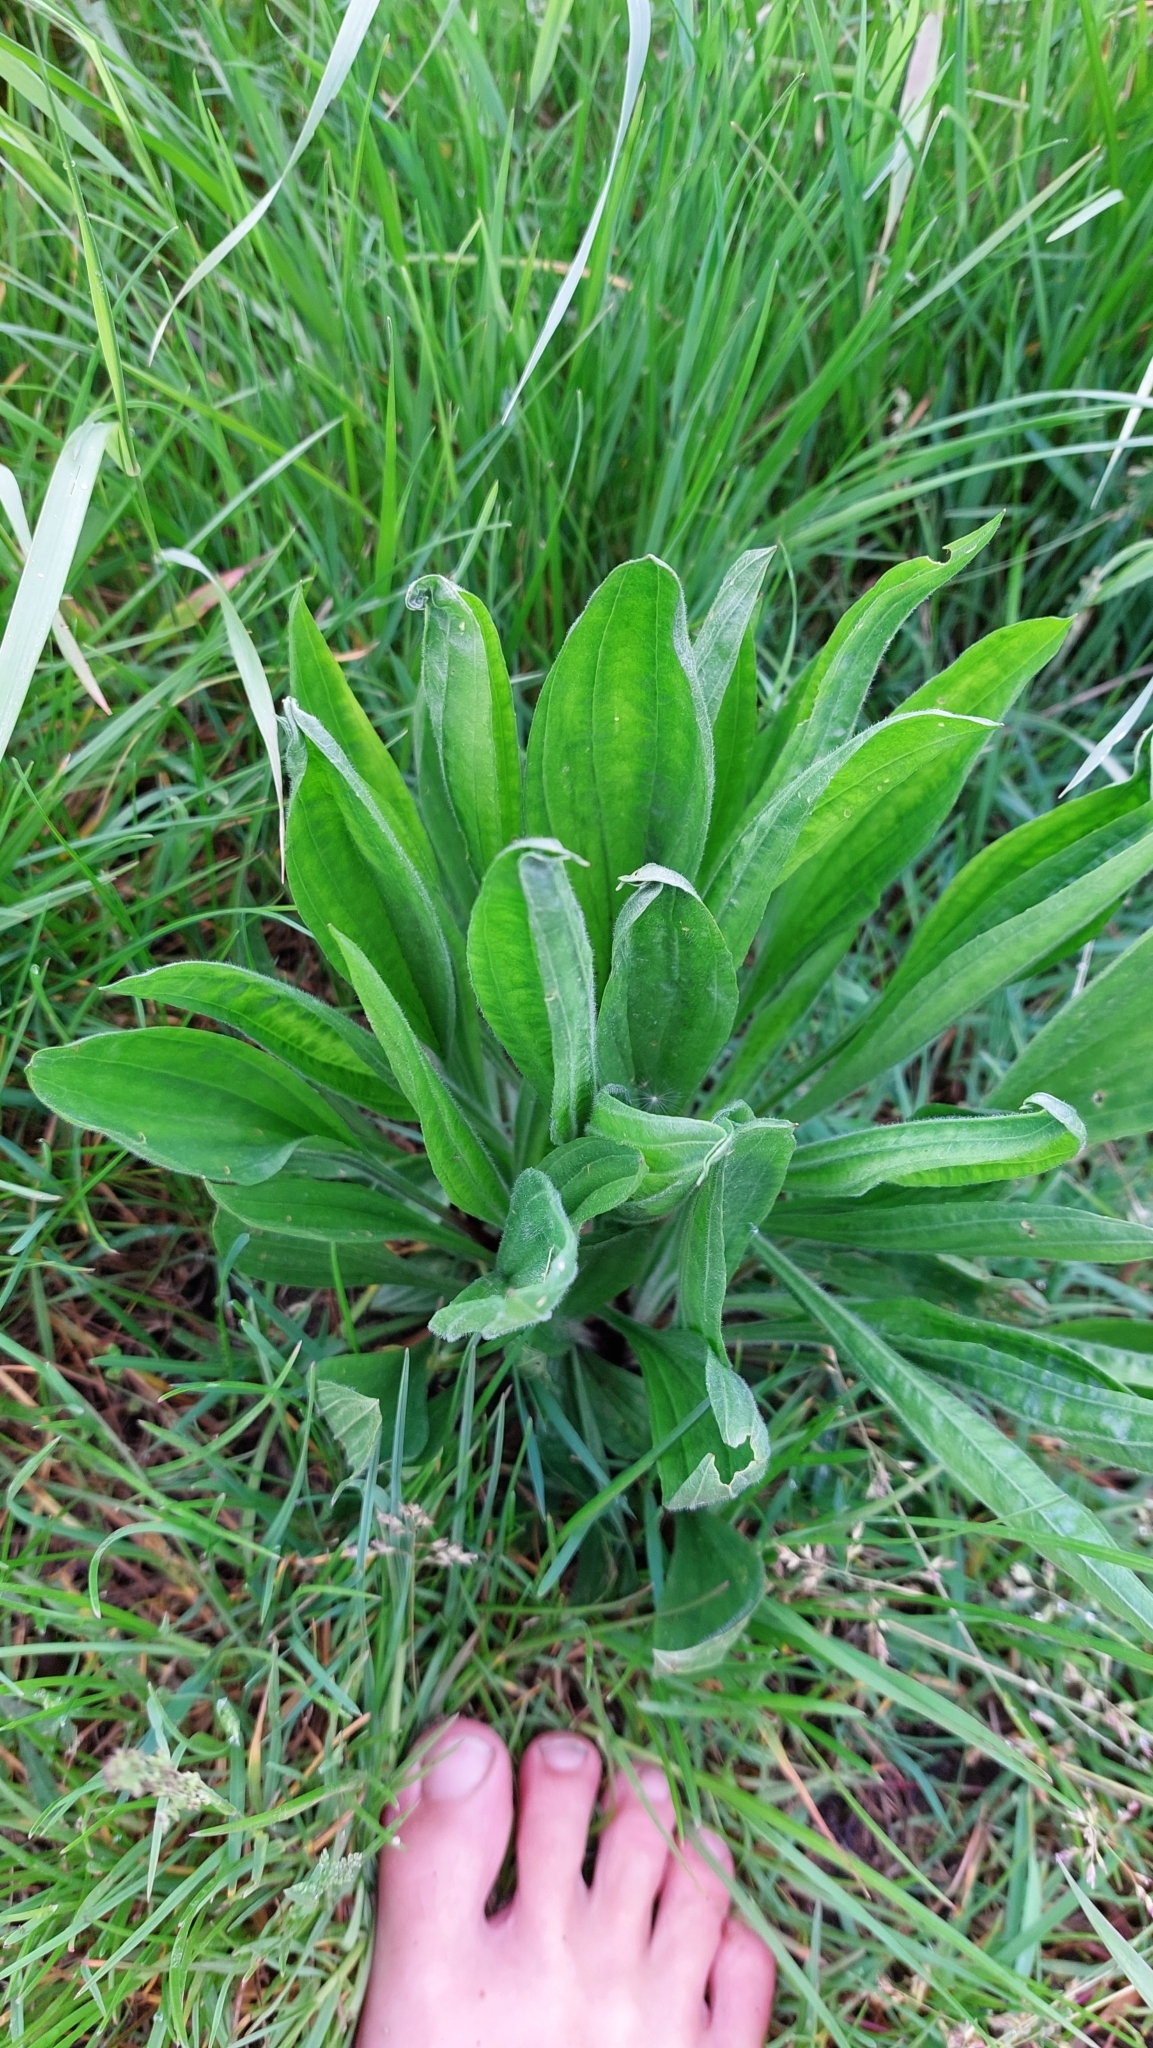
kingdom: Plantae
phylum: Tracheophyta
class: Magnoliopsida
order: Lamiales
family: Plantaginaceae
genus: Plantago
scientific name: Plantago lanceolata
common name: Ribwort plantain
